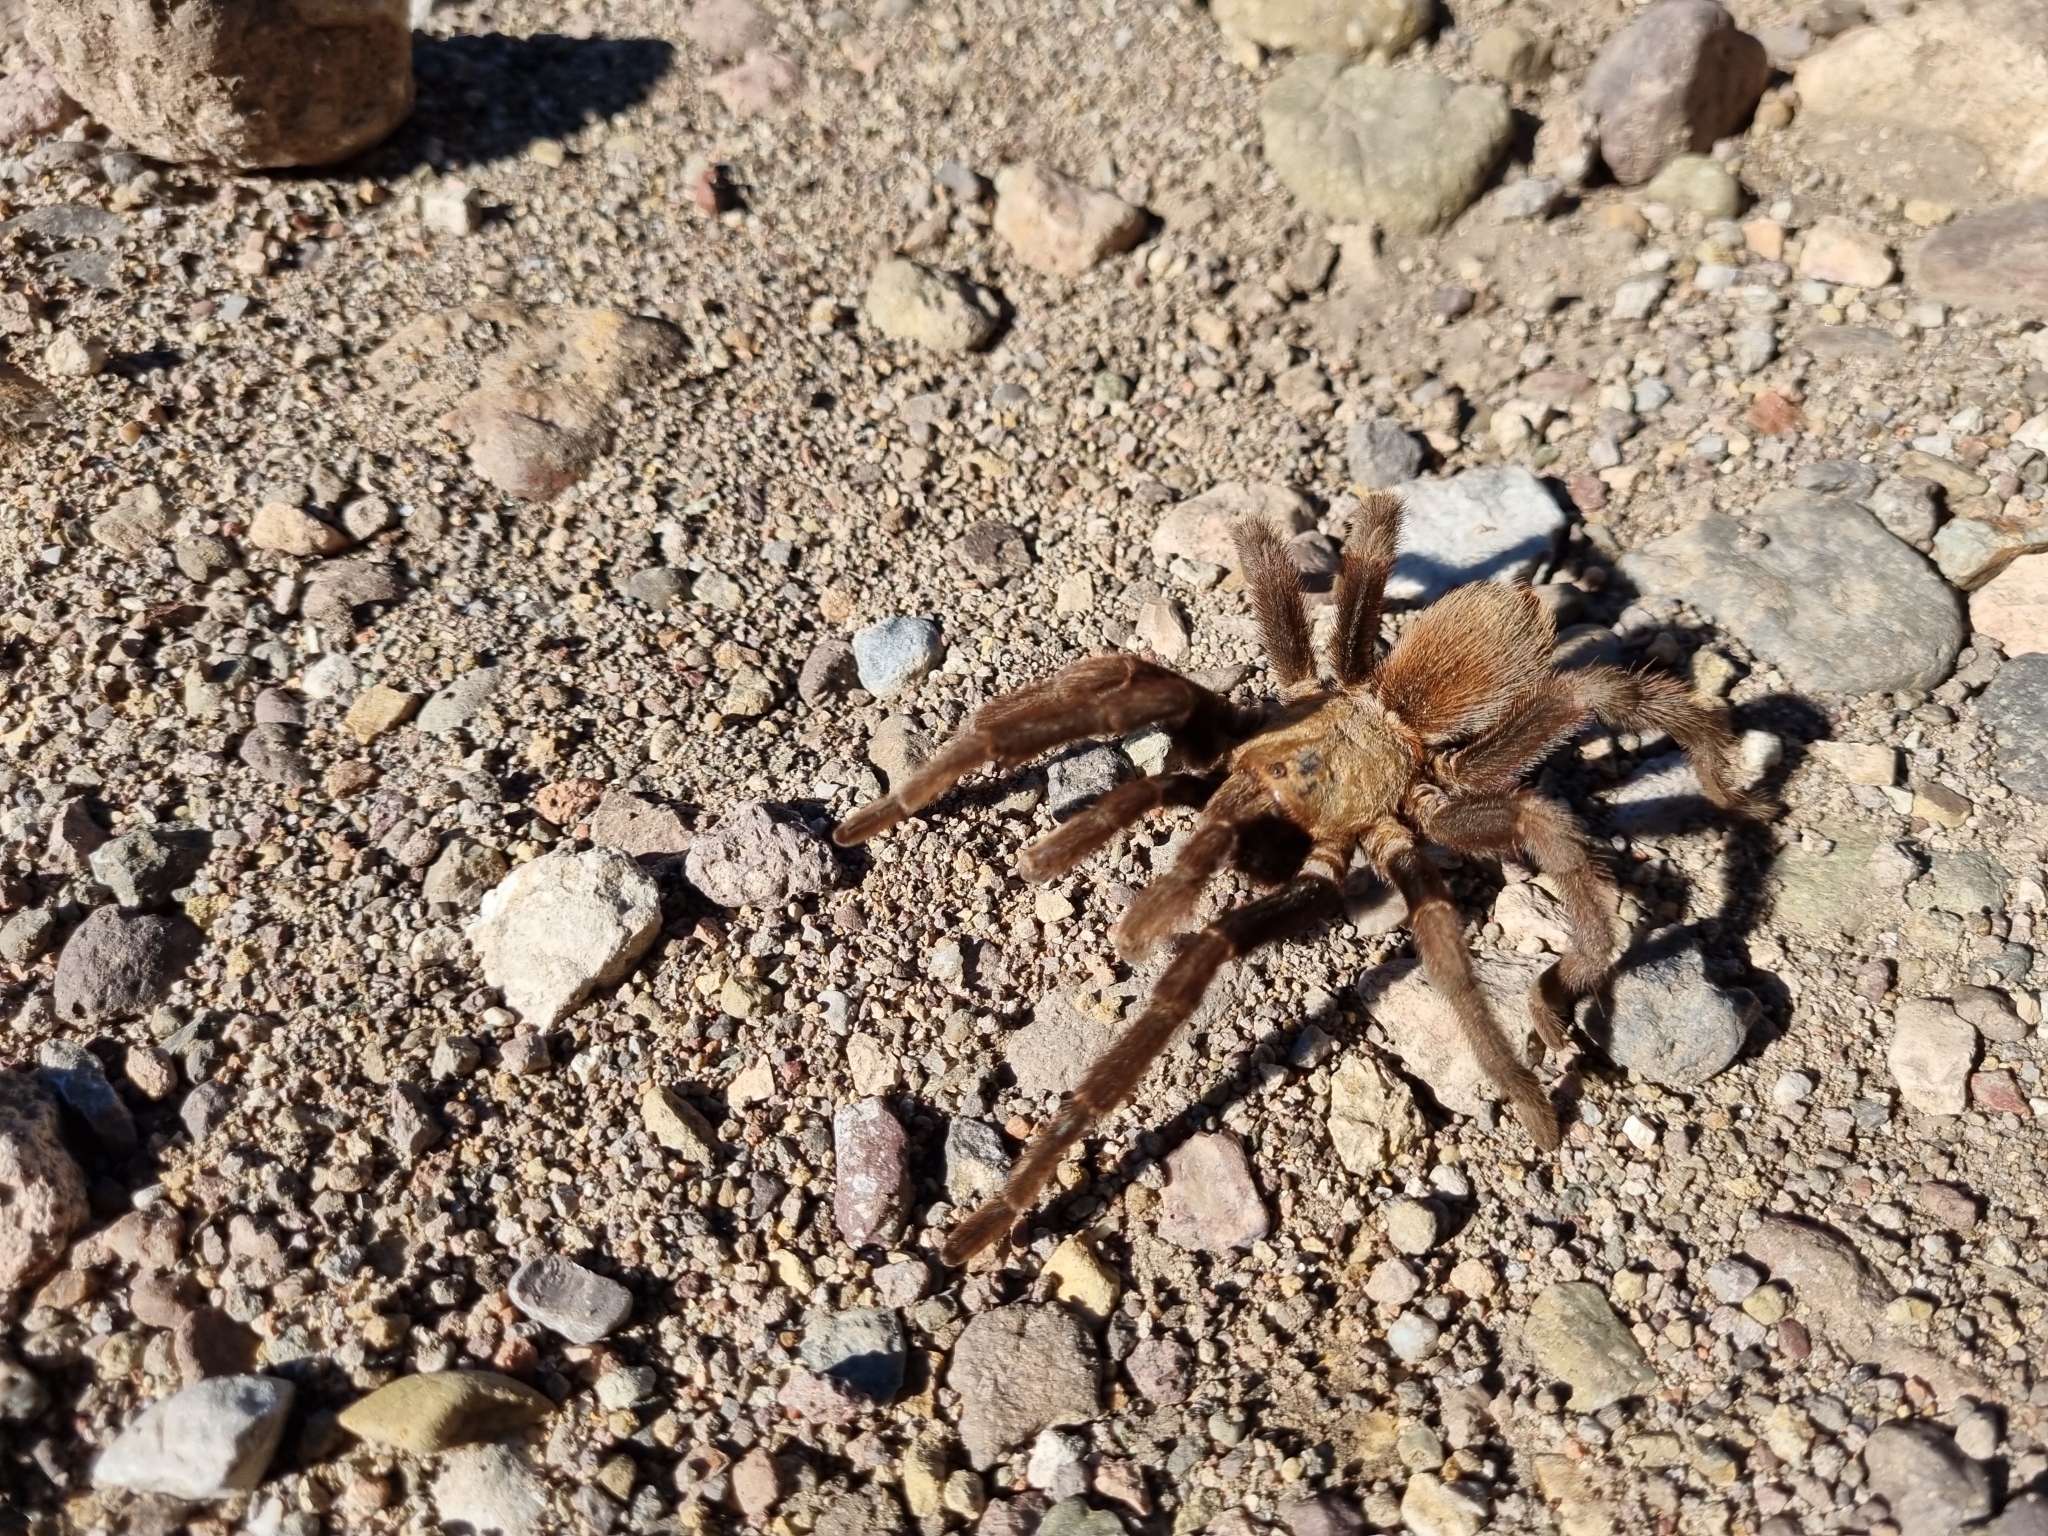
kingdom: Animalia
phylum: Arthropoda
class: Arachnida
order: Araneae
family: Theraphosidae
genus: Aphonopelma
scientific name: Aphonopelma pallidum
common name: Chihuahua gray
